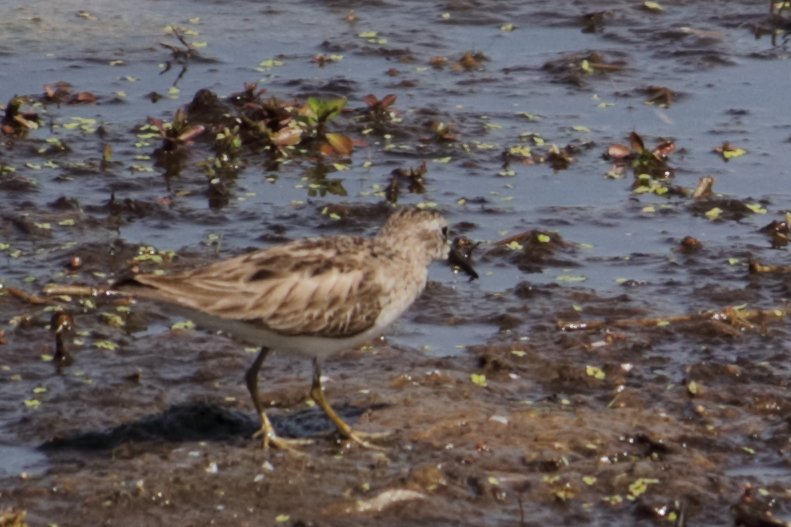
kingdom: Animalia
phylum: Chordata
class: Aves
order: Charadriiformes
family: Scolopacidae
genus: Calidris
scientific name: Calidris minutilla
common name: Least sandpiper
